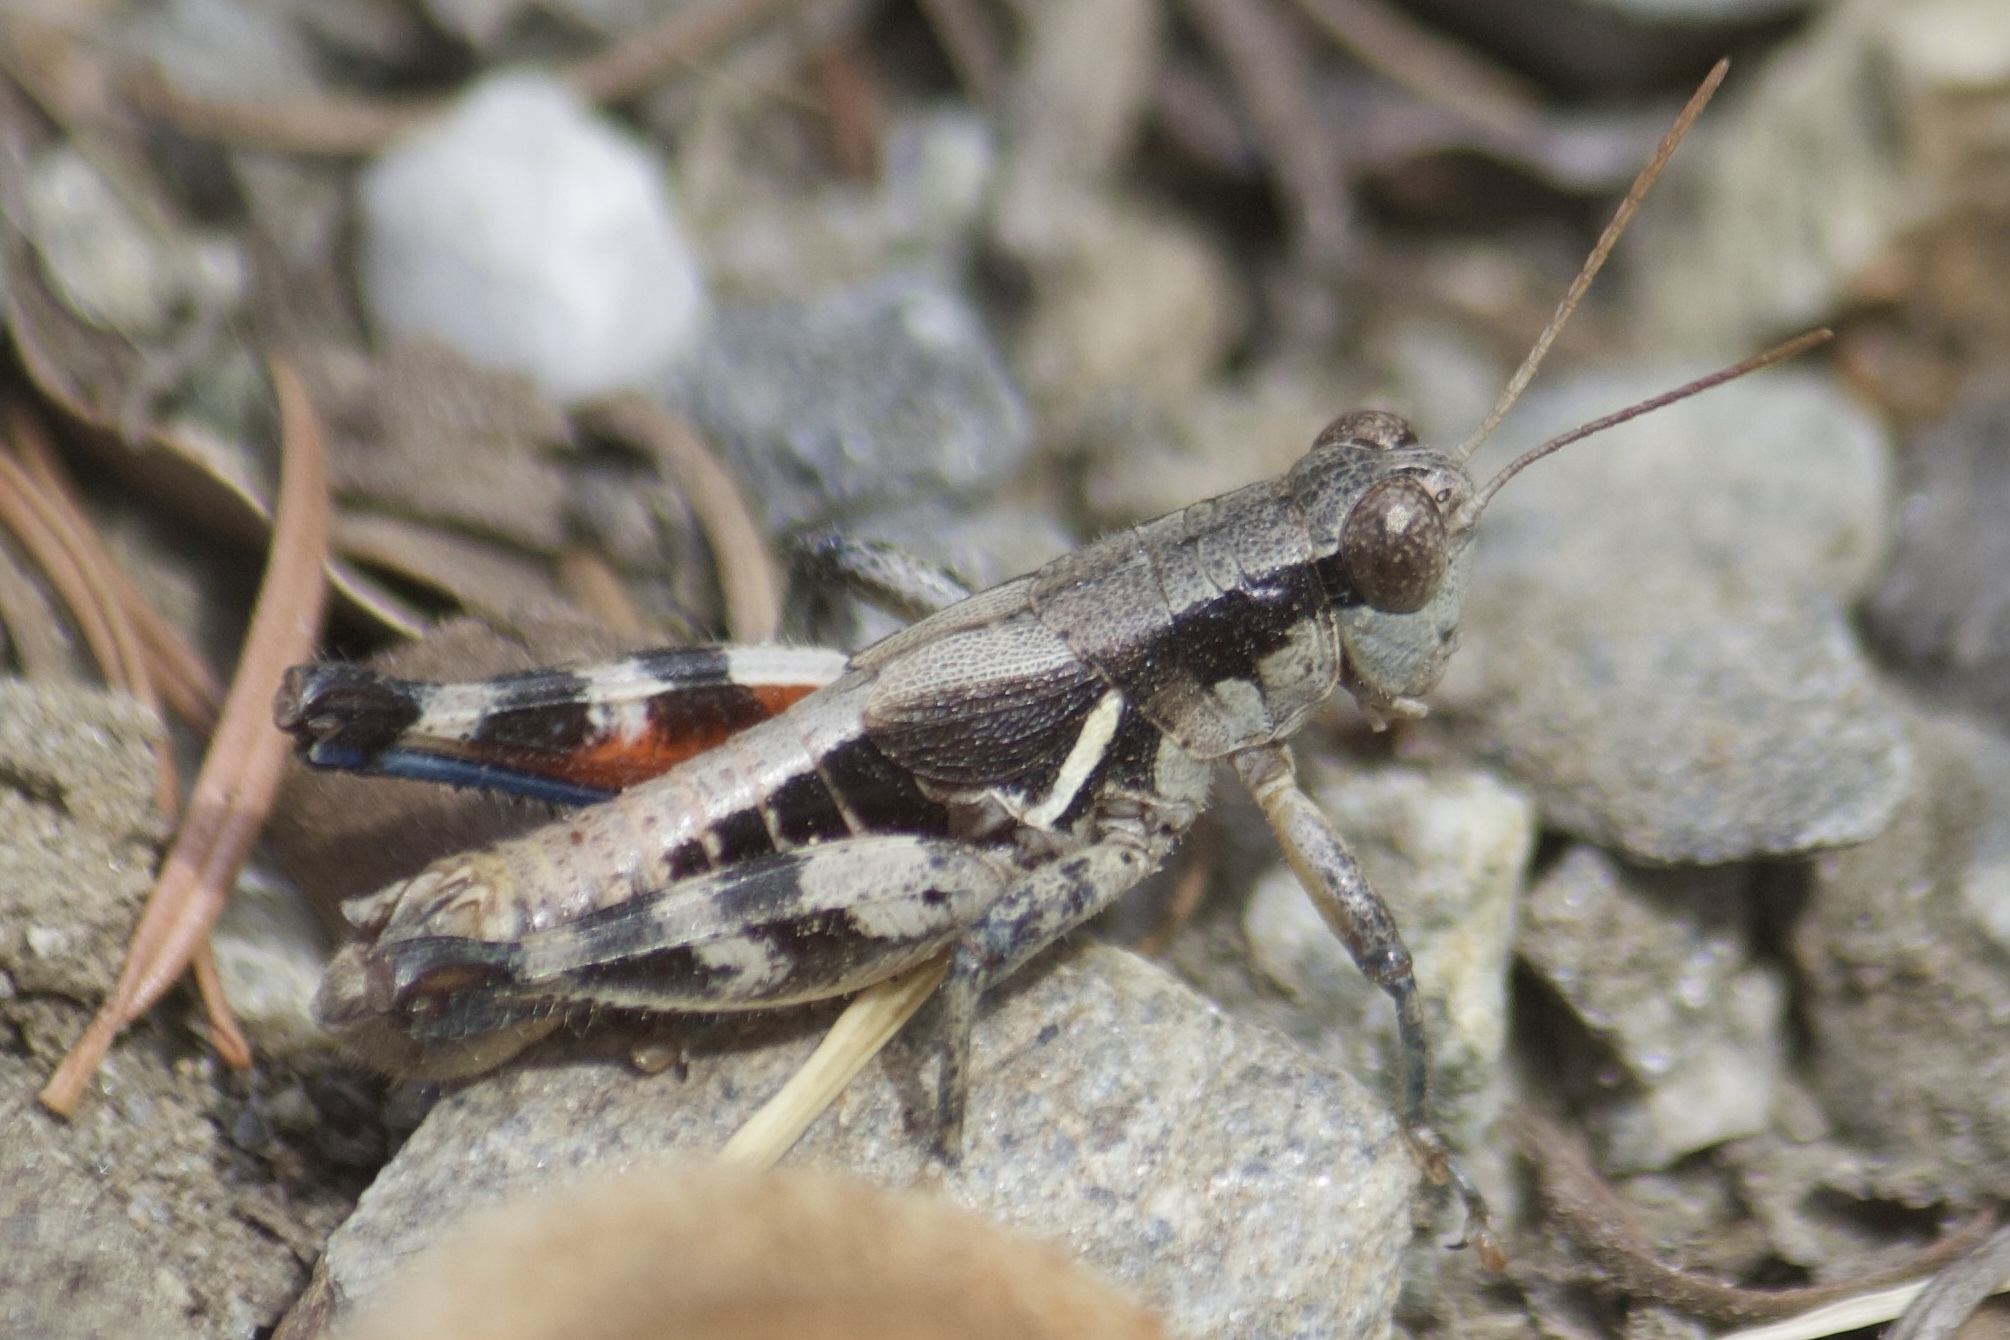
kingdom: Animalia
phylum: Arthropoda
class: Insecta
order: Orthoptera
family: Acrididae
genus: Melanoplus
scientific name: Melanoplus rileyanus
